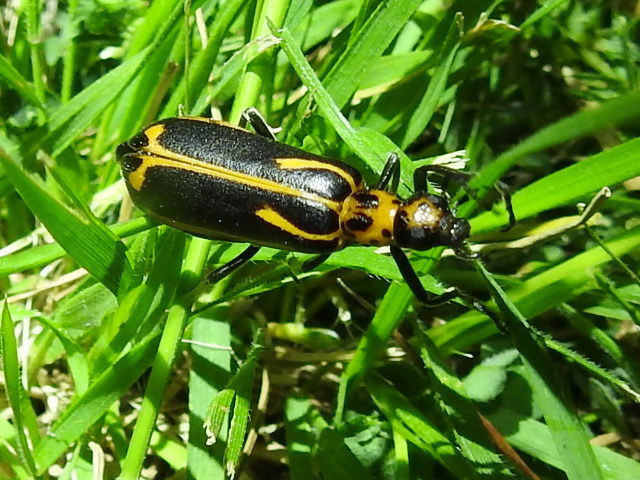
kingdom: Animalia
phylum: Arthropoda
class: Insecta
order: Coleoptera
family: Meloidae
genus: Pyrota
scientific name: Pyrota insulata
